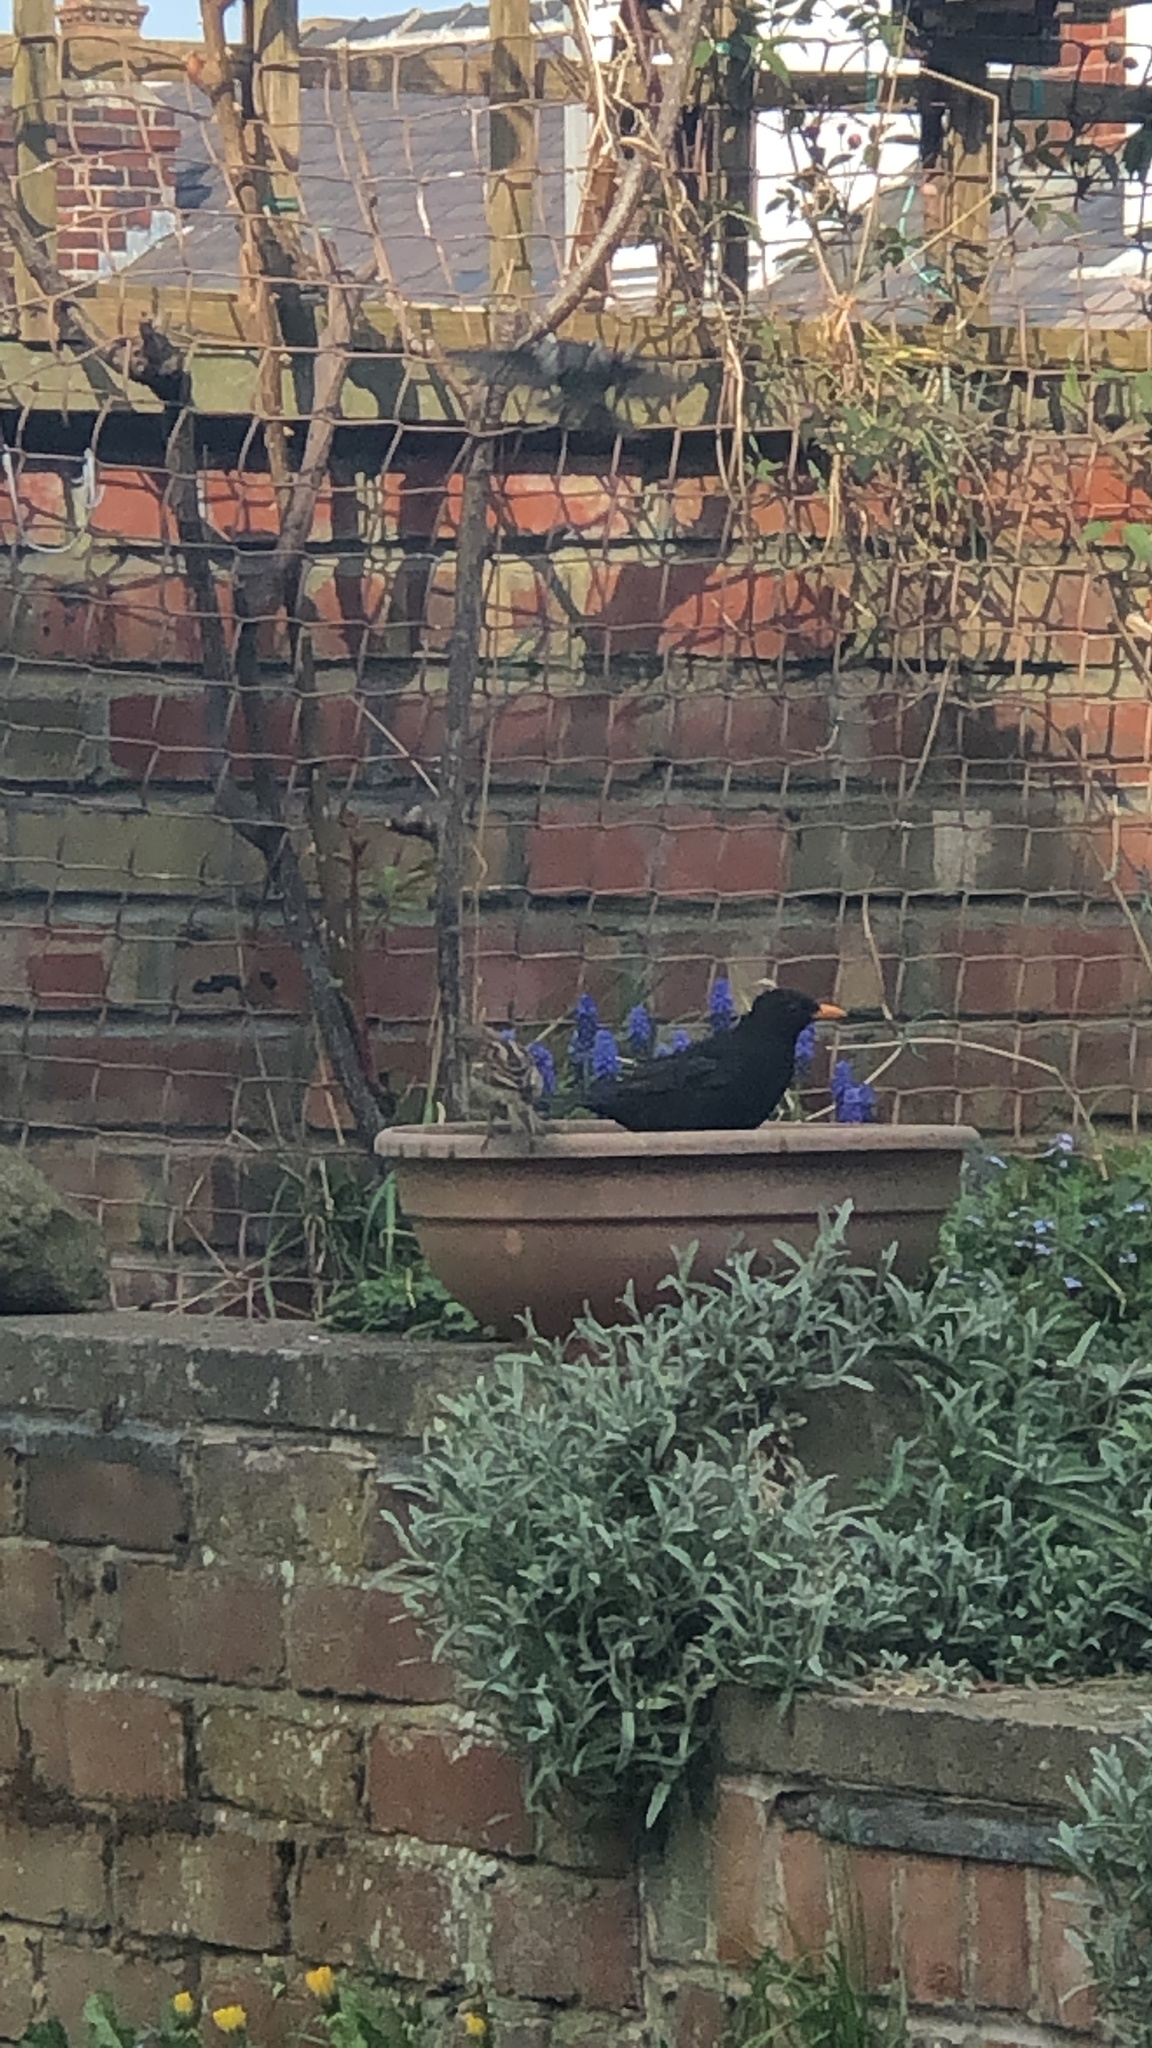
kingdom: Animalia
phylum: Chordata
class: Aves
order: Passeriformes
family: Passeridae
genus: Passer
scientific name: Passer domesticus
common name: House sparrow
